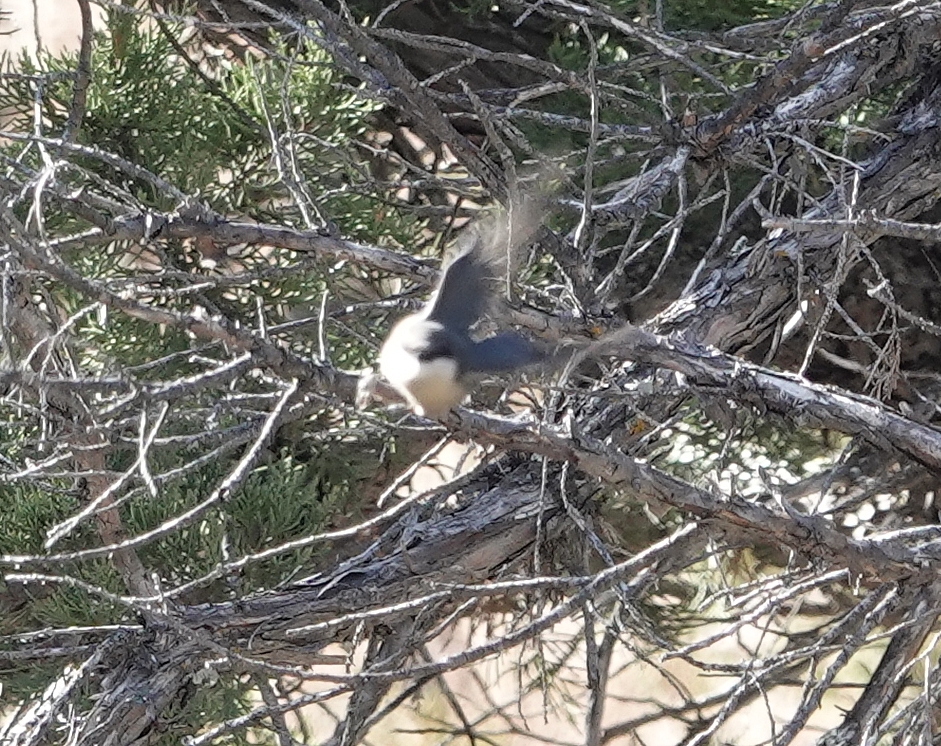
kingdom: Animalia
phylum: Chordata
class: Aves
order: Passeriformes
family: Sittidae
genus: Sitta
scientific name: Sitta pygmaea
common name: Pygmy nuthatch
